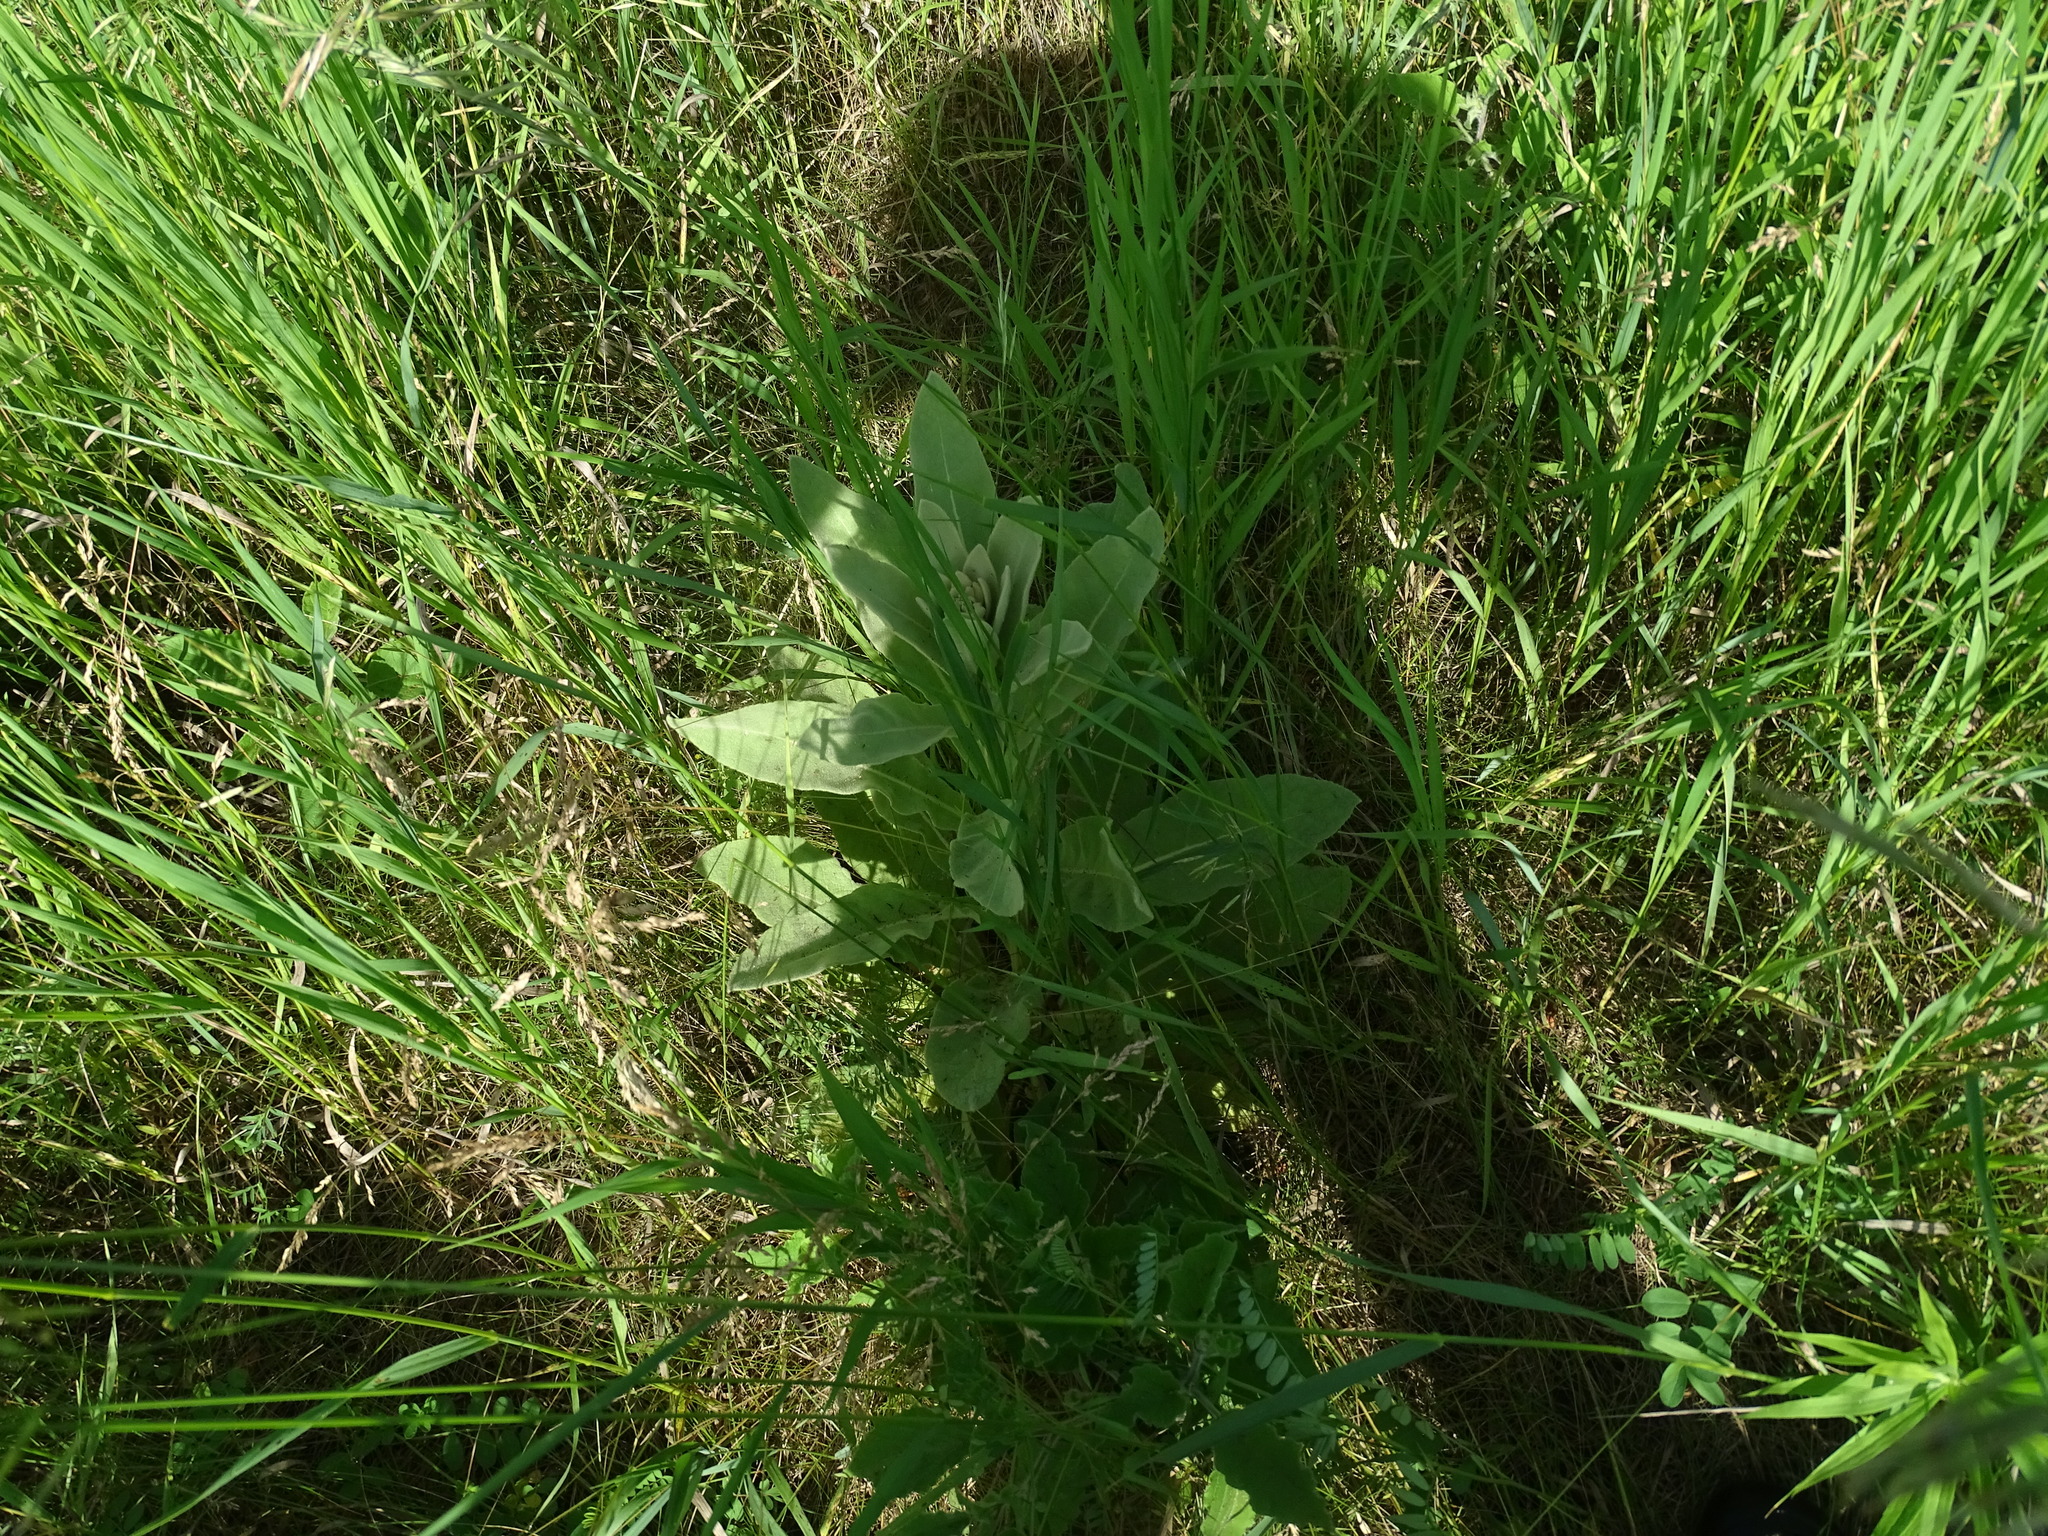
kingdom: Plantae
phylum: Tracheophyta
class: Magnoliopsida
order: Lamiales
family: Scrophulariaceae
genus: Verbascum
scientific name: Verbascum thapsus
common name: Common mullein
